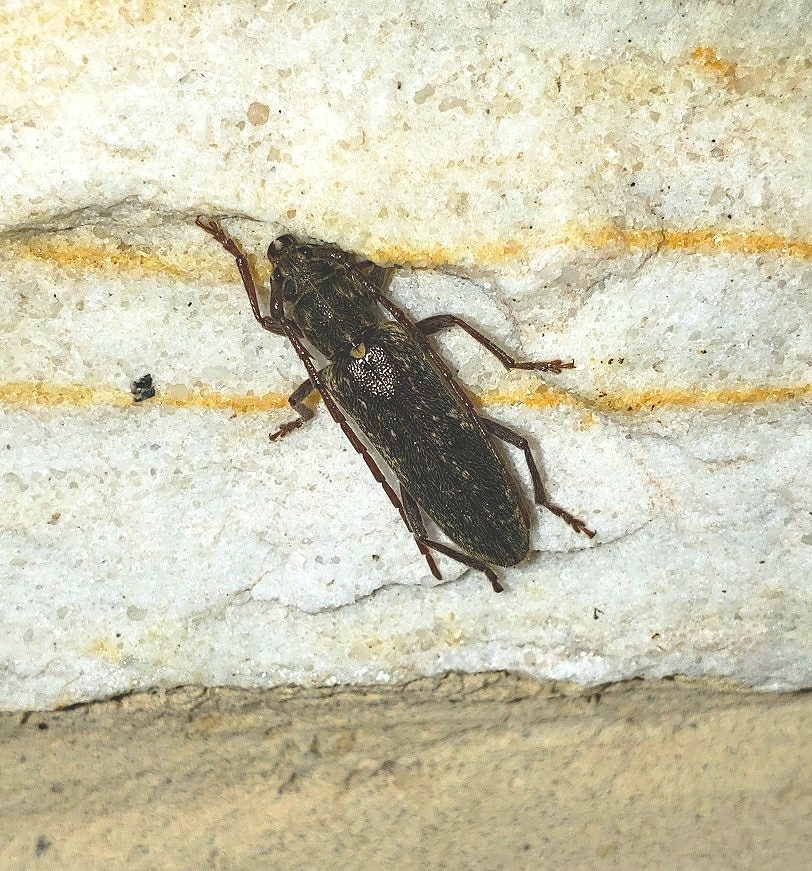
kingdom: Animalia
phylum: Arthropoda
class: Insecta
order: Coleoptera
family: Cerambycidae
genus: Anelaphus
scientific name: Anelaphus villosus
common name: Twig pruner
